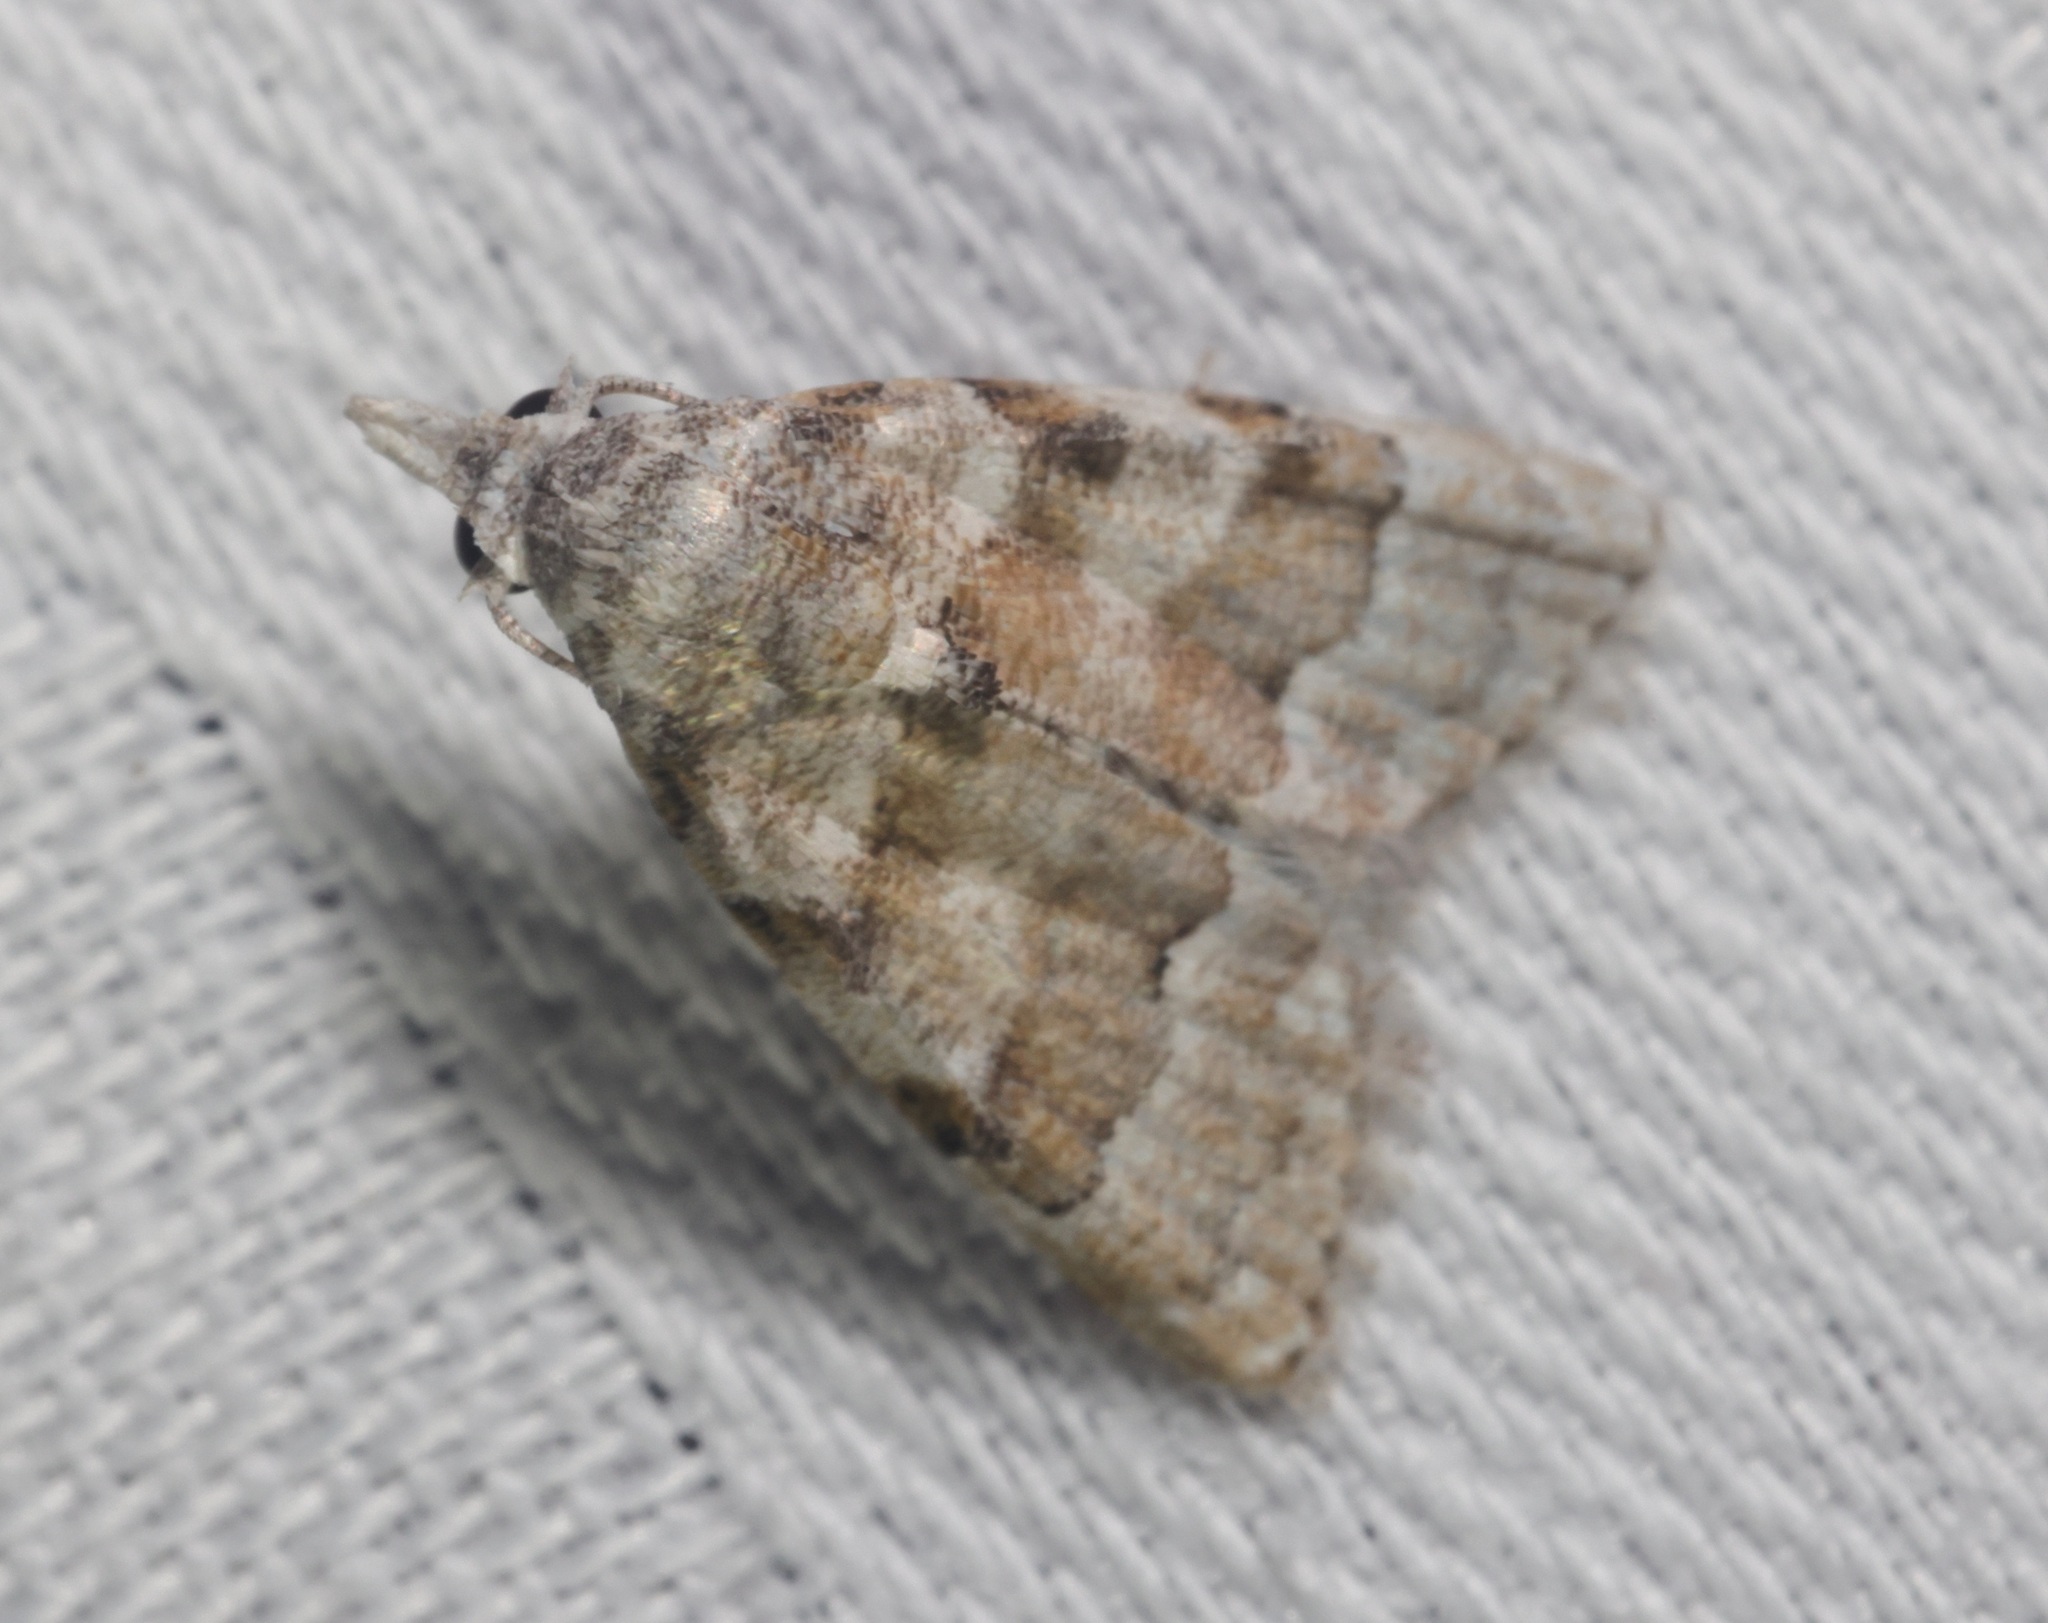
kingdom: Animalia
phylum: Arthropoda
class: Insecta
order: Lepidoptera
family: Nolidae
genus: Nola
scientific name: Nola bifascialis
